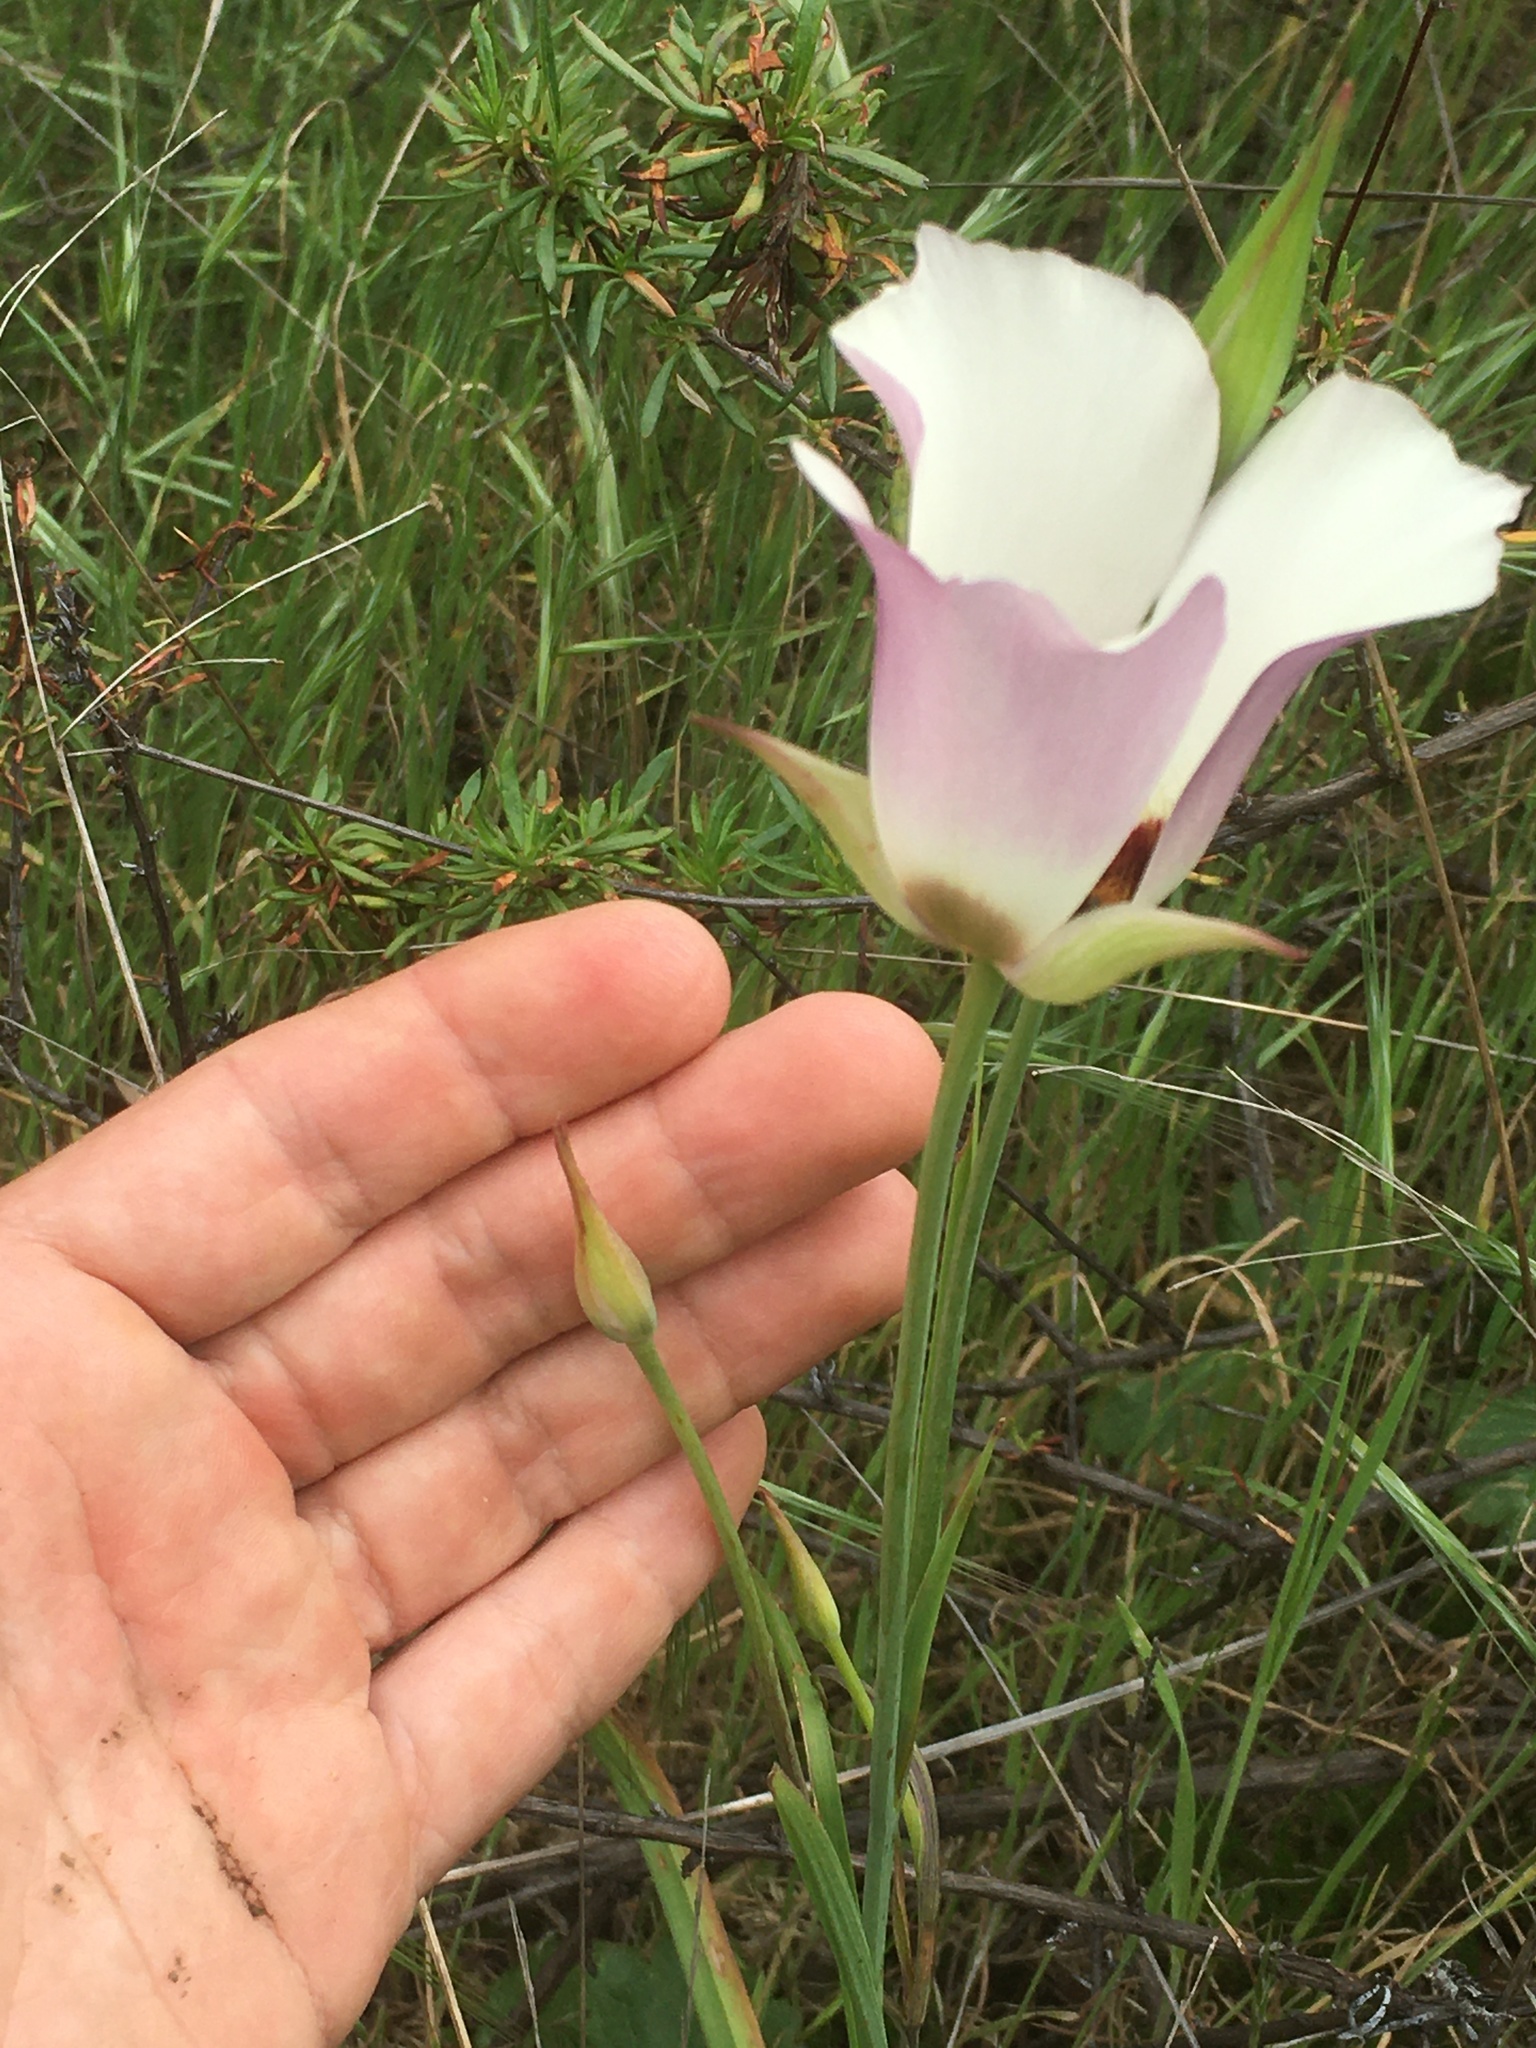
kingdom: Plantae
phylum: Tracheophyta
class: Liliopsida
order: Liliales
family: Liliaceae
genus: Calochortus
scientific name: Calochortus catalinae
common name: Catalina mariposa-lily
